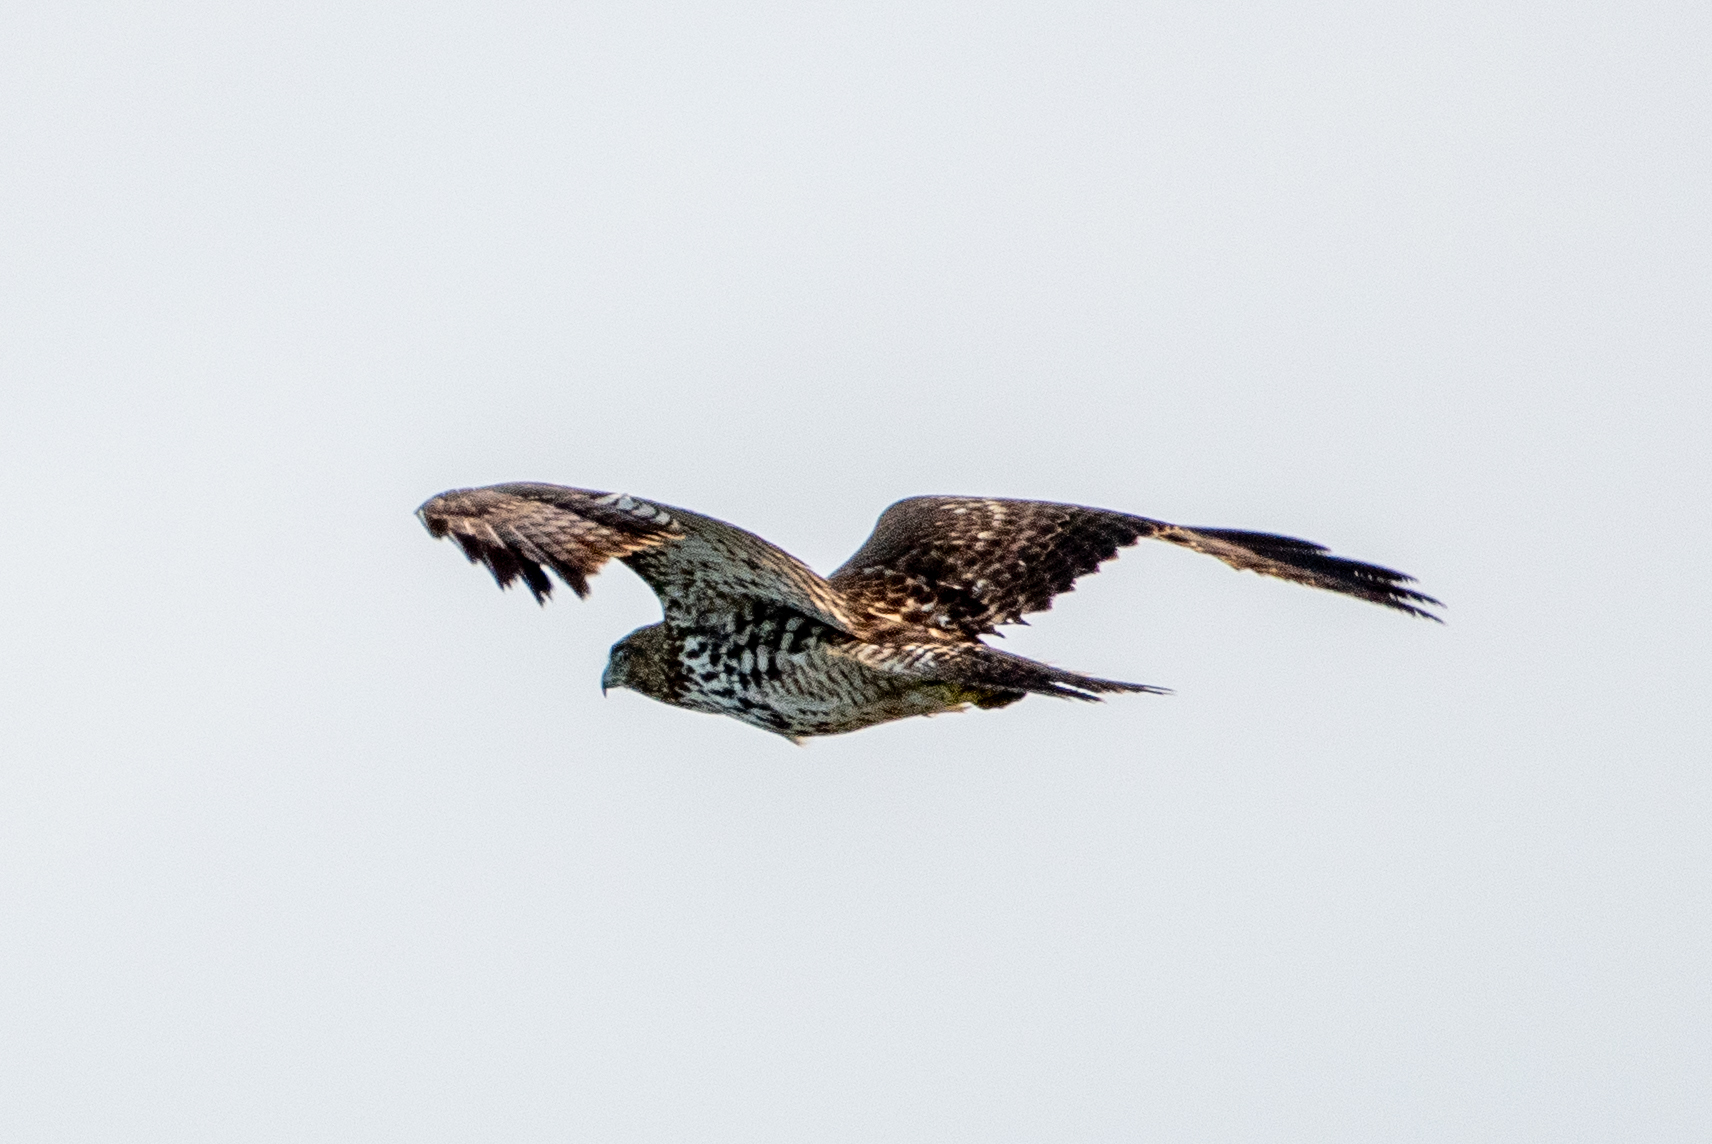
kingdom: Animalia
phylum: Chordata
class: Aves
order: Accipitriformes
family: Accipitridae
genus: Buteo
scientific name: Buteo jamaicensis
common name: Red-tailed hawk
